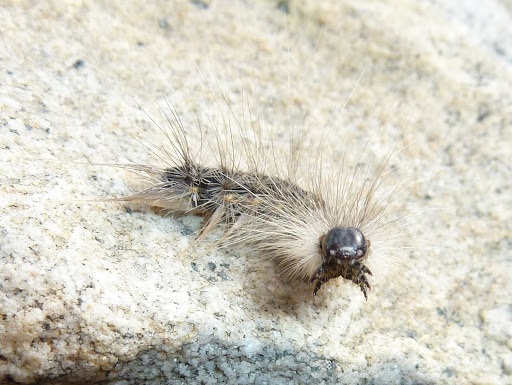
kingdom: Animalia
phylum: Arthropoda
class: Insecta
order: Lepidoptera
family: Erebidae
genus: Estigmene
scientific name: Estigmene acrea
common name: Salt marsh moth
